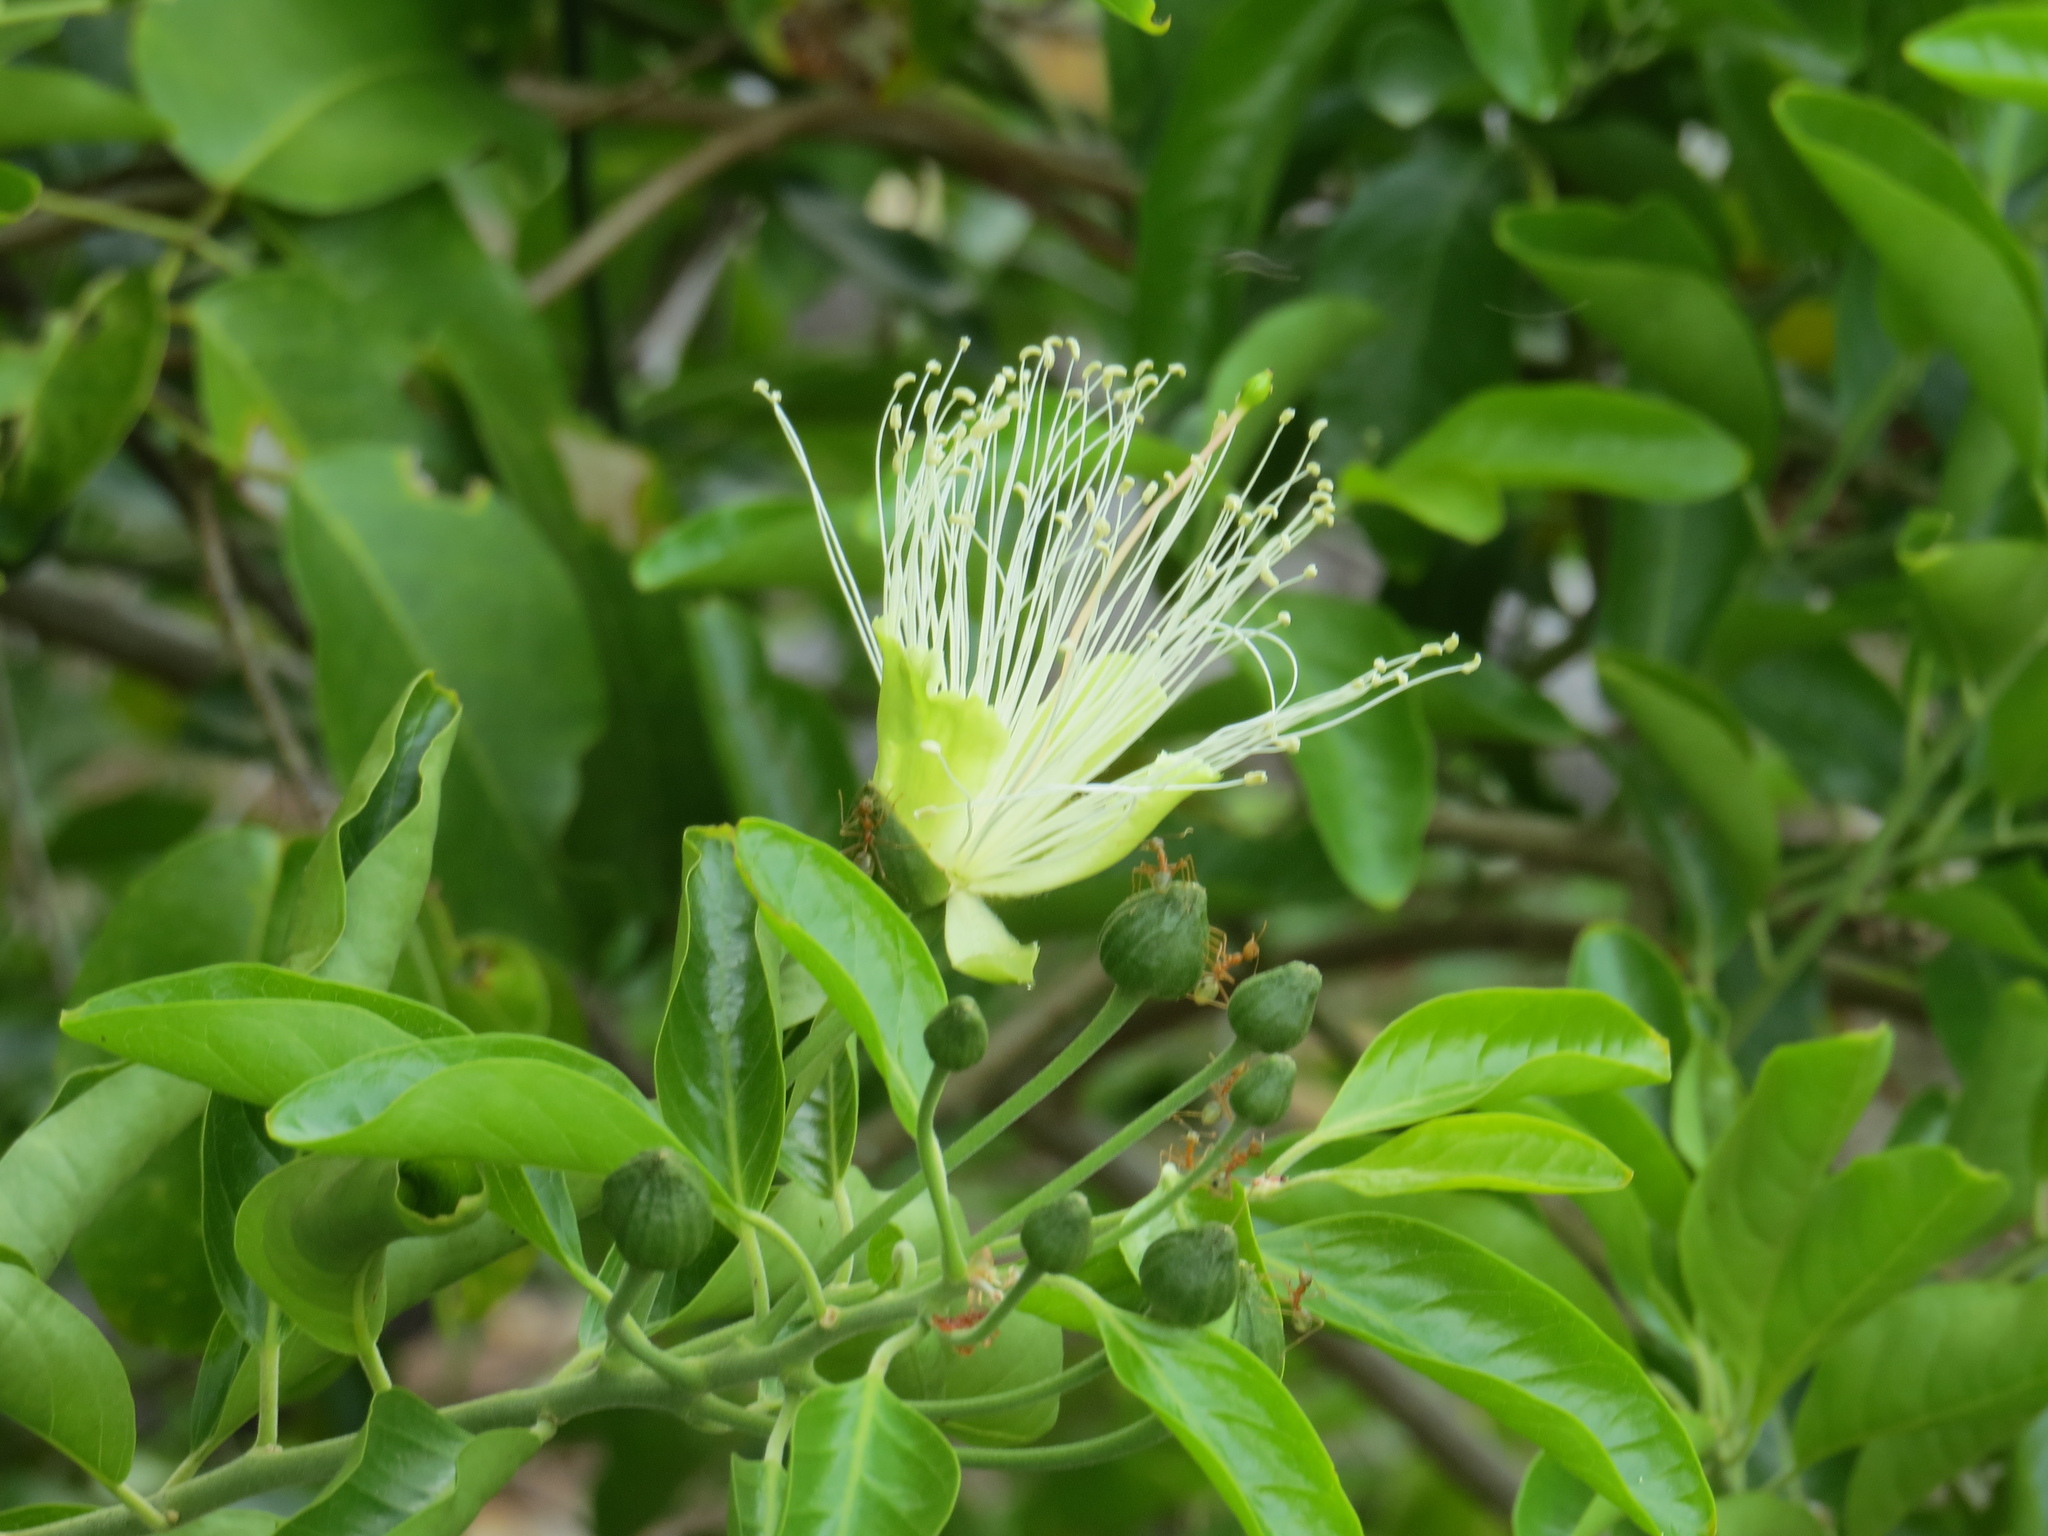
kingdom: Plantae
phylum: Tracheophyta
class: Magnoliopsida
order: Brassicales
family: Capparaceae
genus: Capparis
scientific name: Capparis lucida
